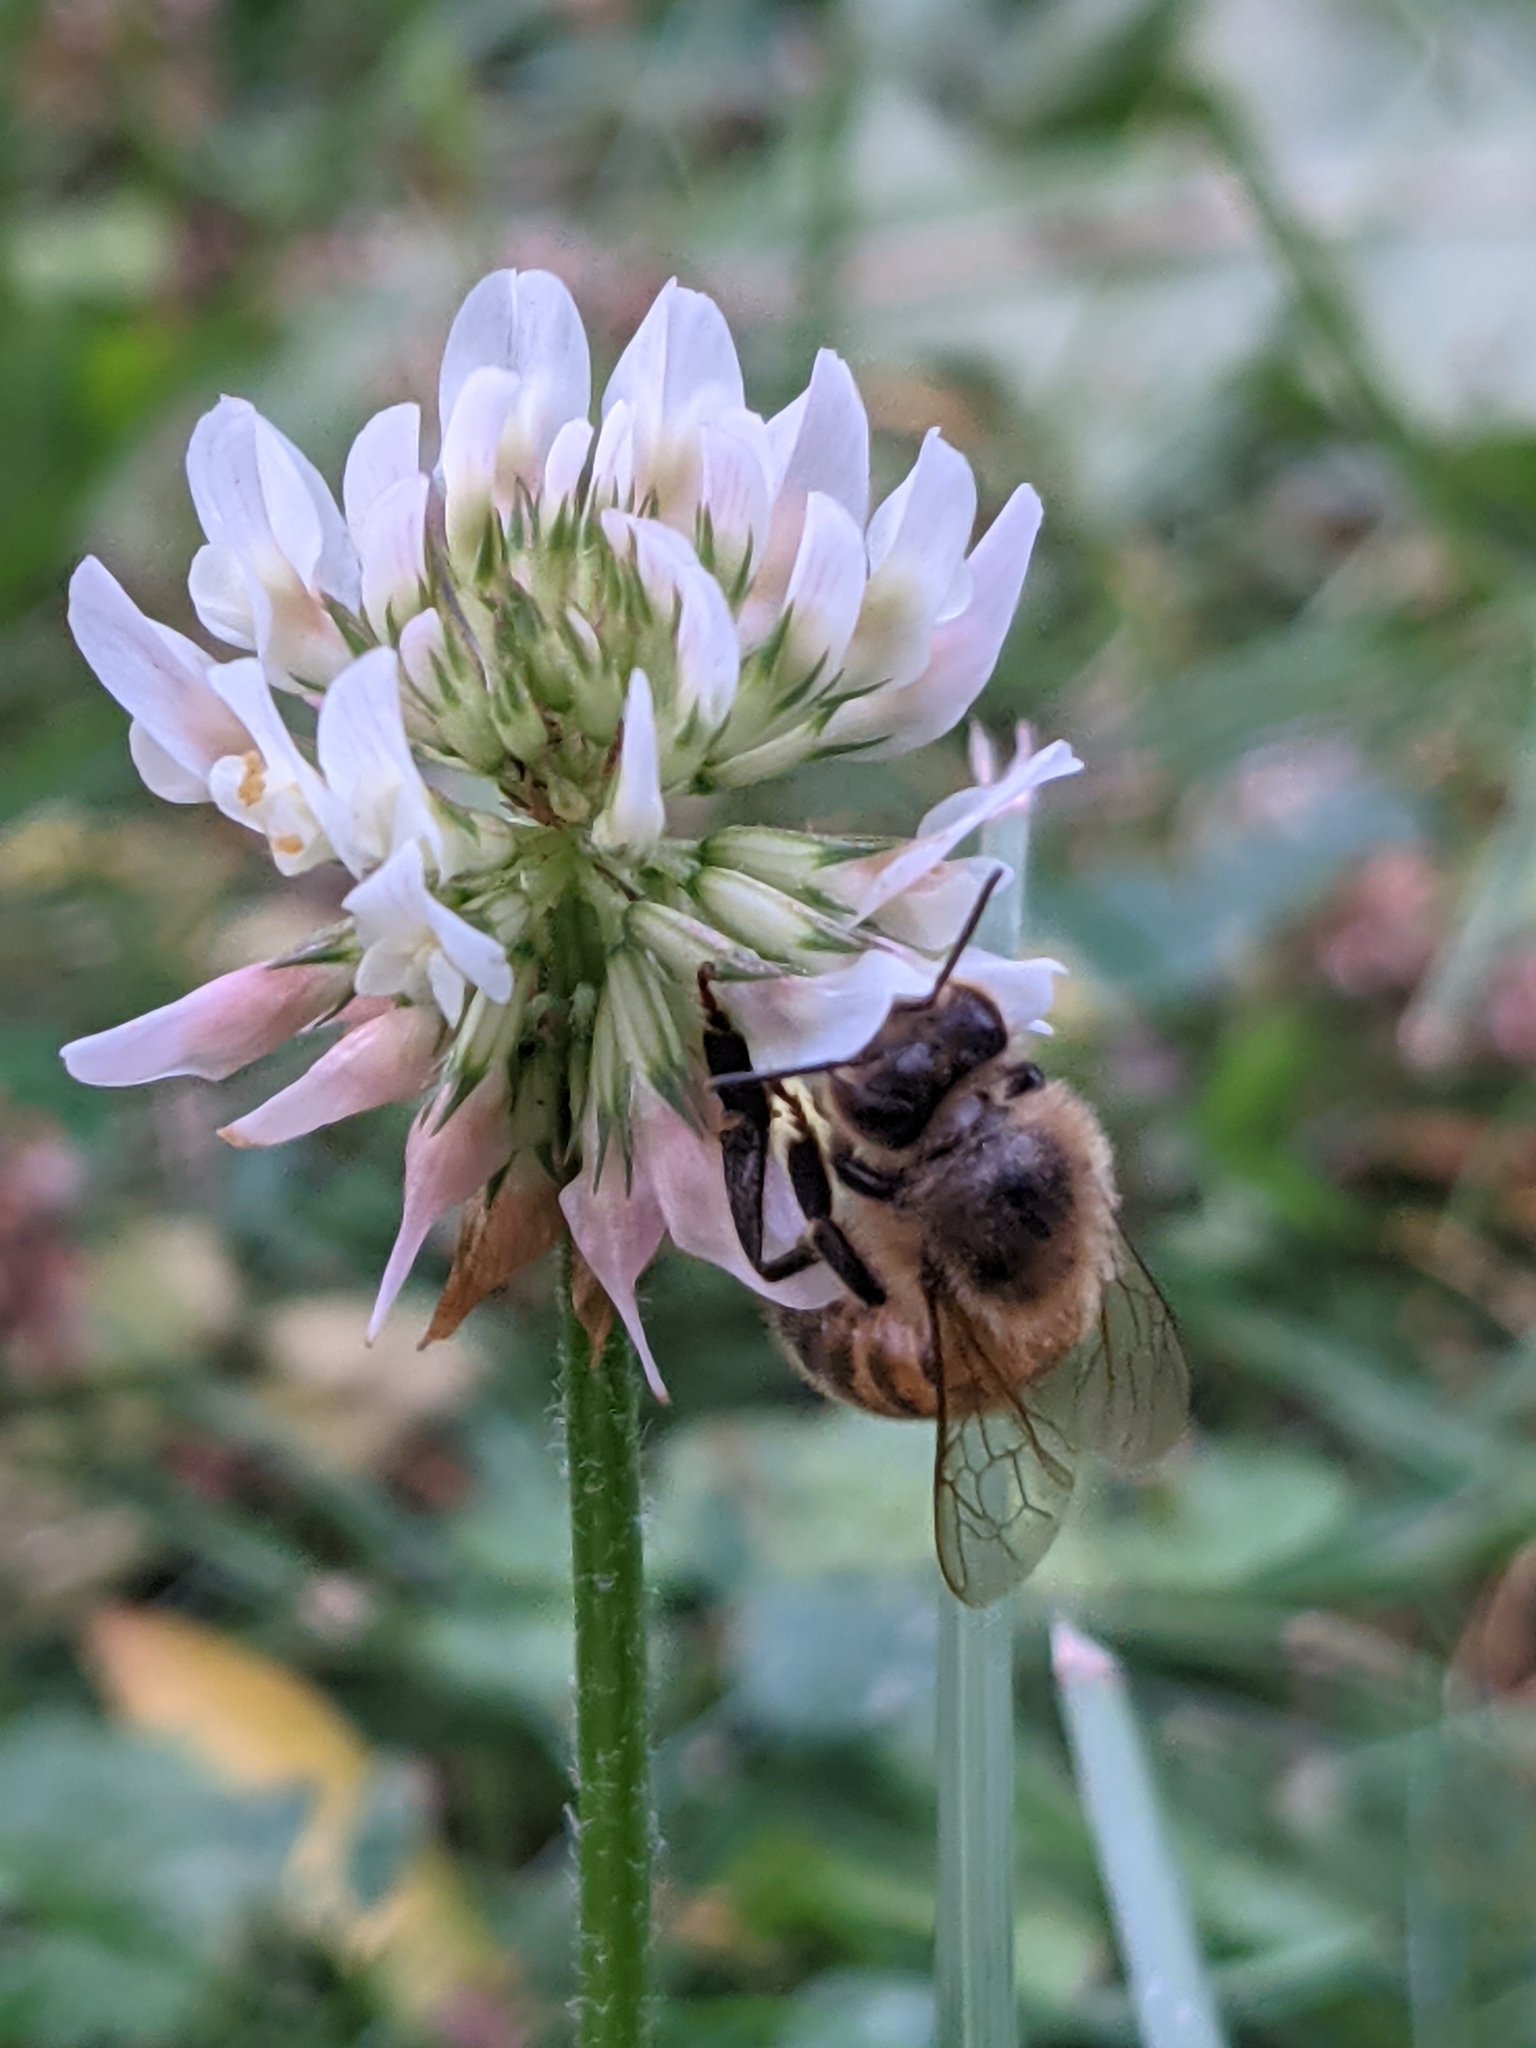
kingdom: Animalia
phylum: Arthropoda
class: Insecta
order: Hymenoptera
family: Apidae
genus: Apis
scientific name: Apis mellifera
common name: Honey bee
